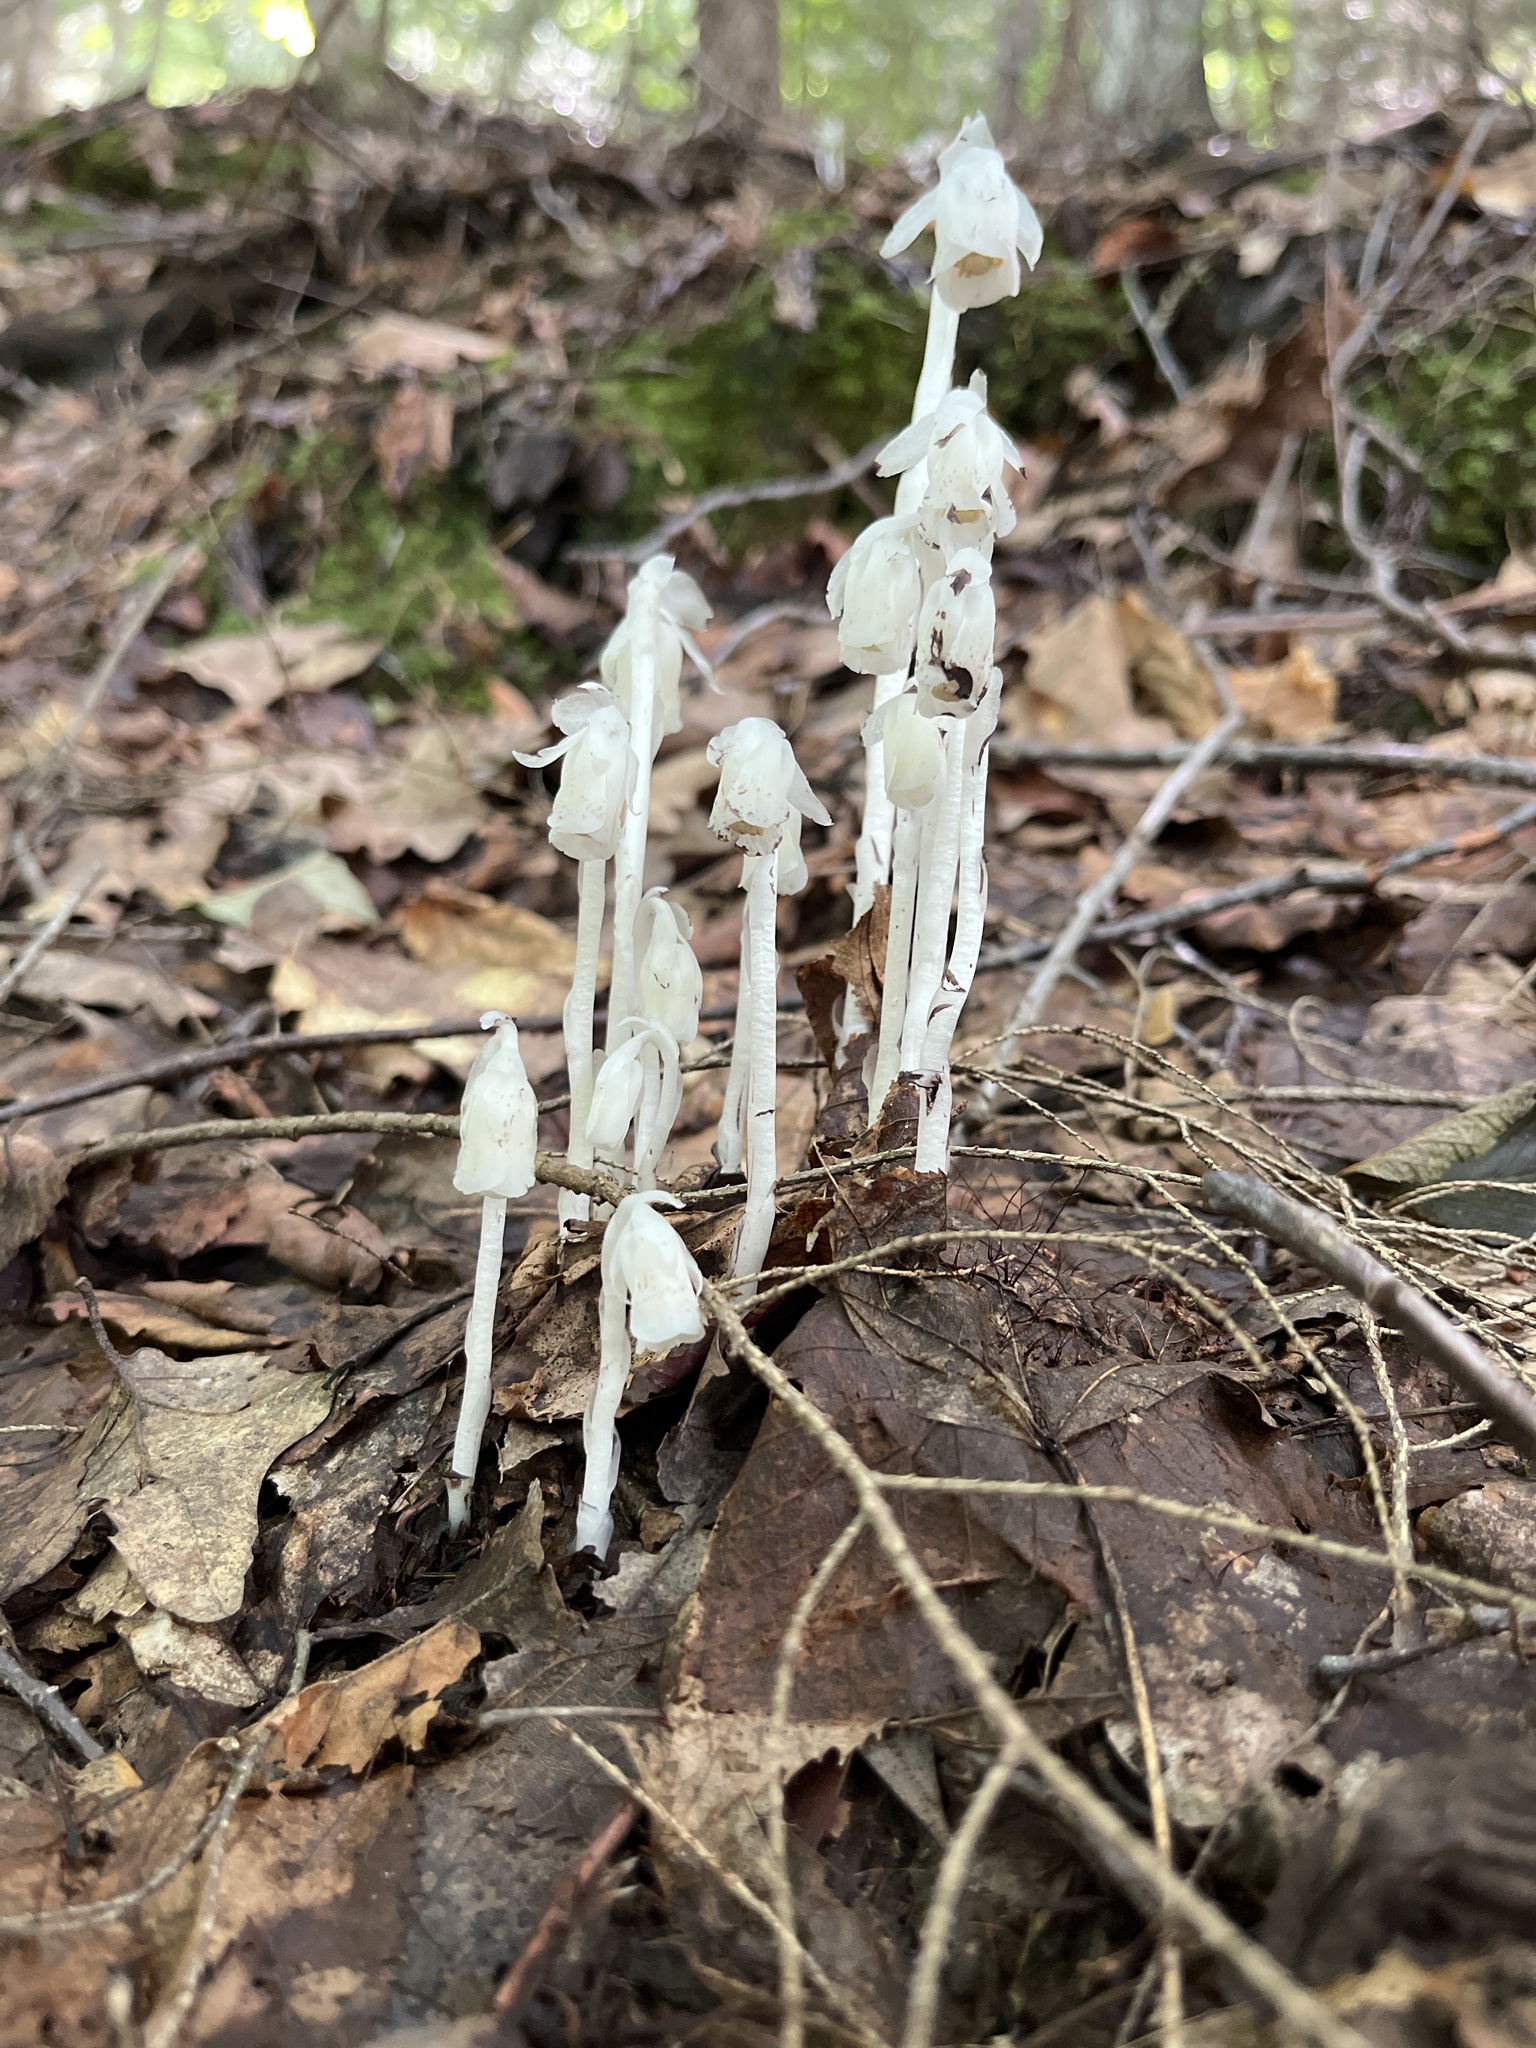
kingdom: Plantae
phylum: Tracheophyta
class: Magnoliopsida
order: Ericales
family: Ericaceae
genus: Monotropa
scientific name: Monotropa uniflora
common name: Convulsion root
